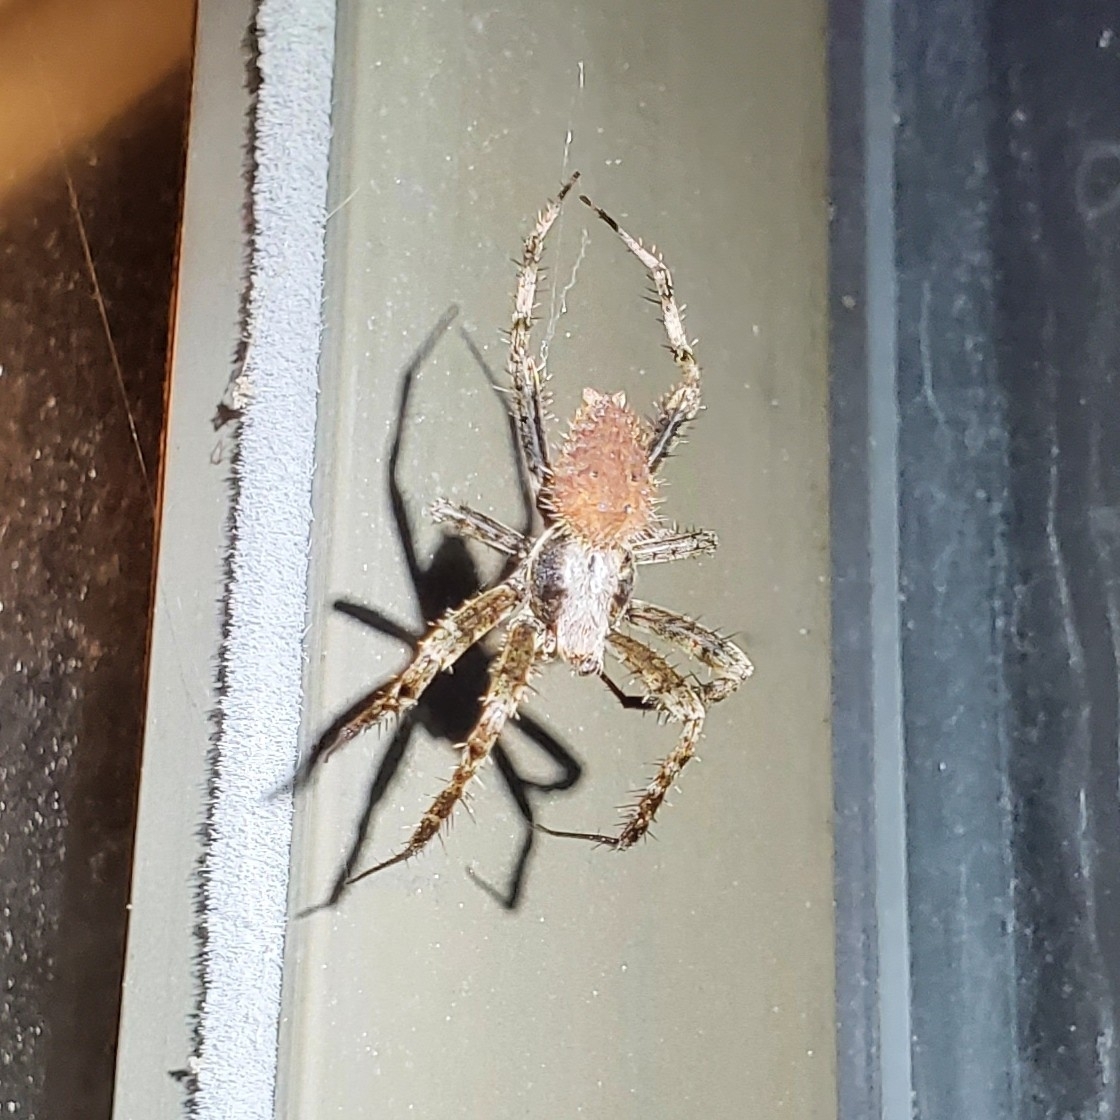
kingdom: Animalia
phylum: Arthropoda
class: Arachnida
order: Araneae
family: Araneidae
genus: Neoscona
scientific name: Neoscona crucifera
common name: Spotted orbweaver
